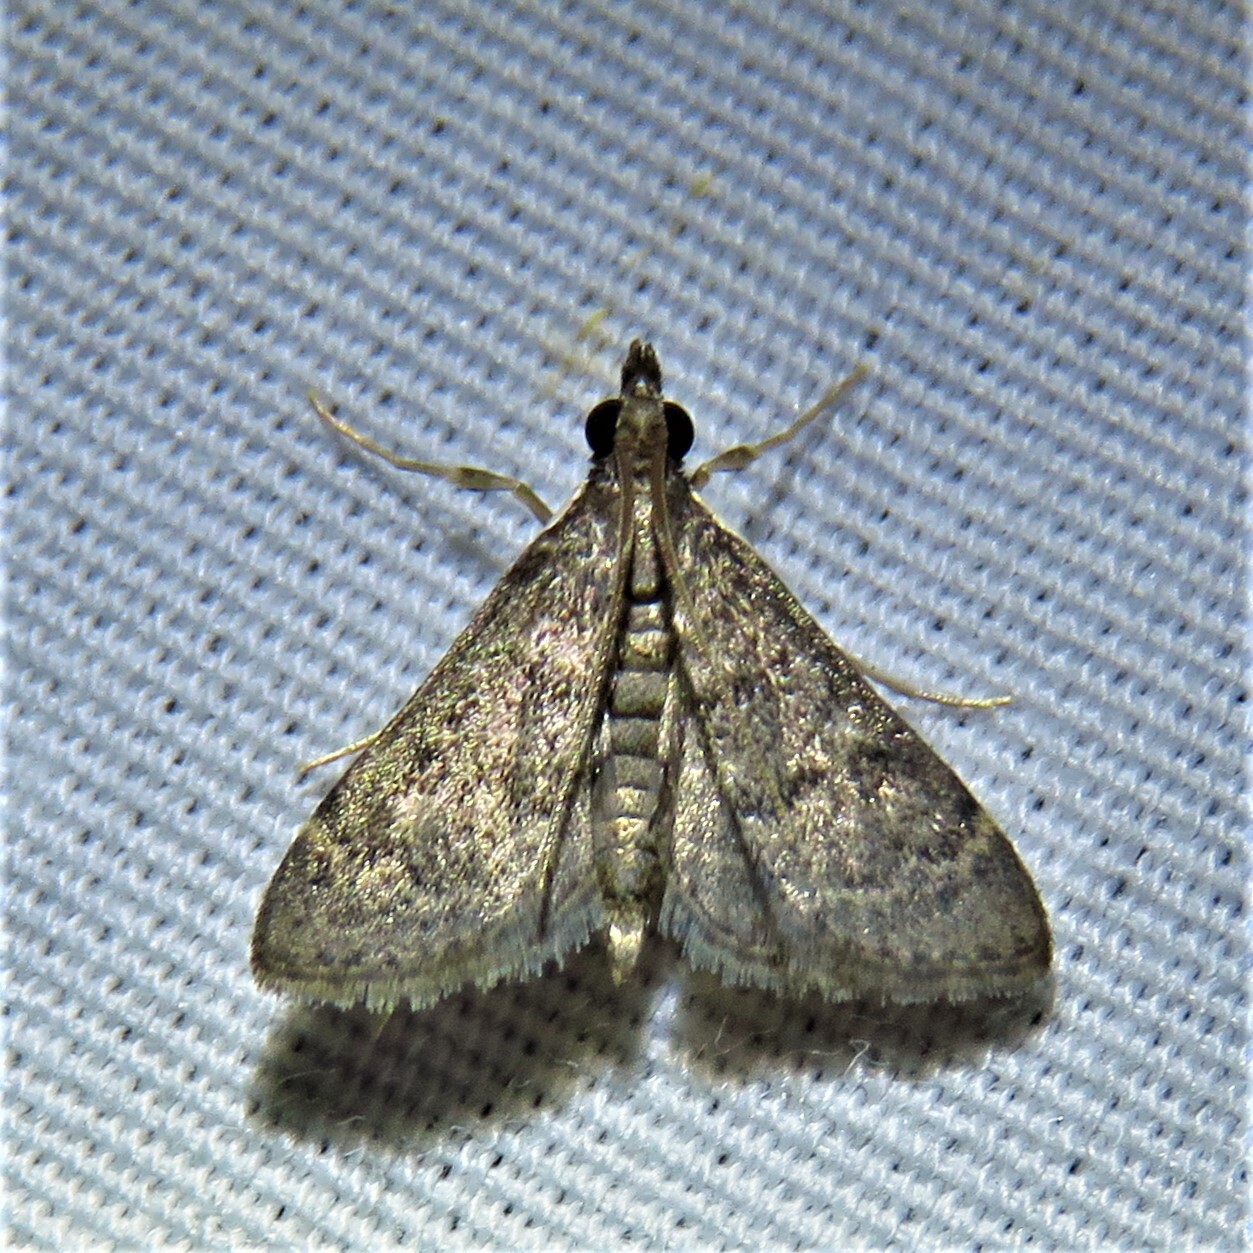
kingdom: Animalia
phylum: Arthropoda
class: Insecta
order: Lepidoptera
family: Crambidae
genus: Steniodes
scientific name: Steniodes declivalis
